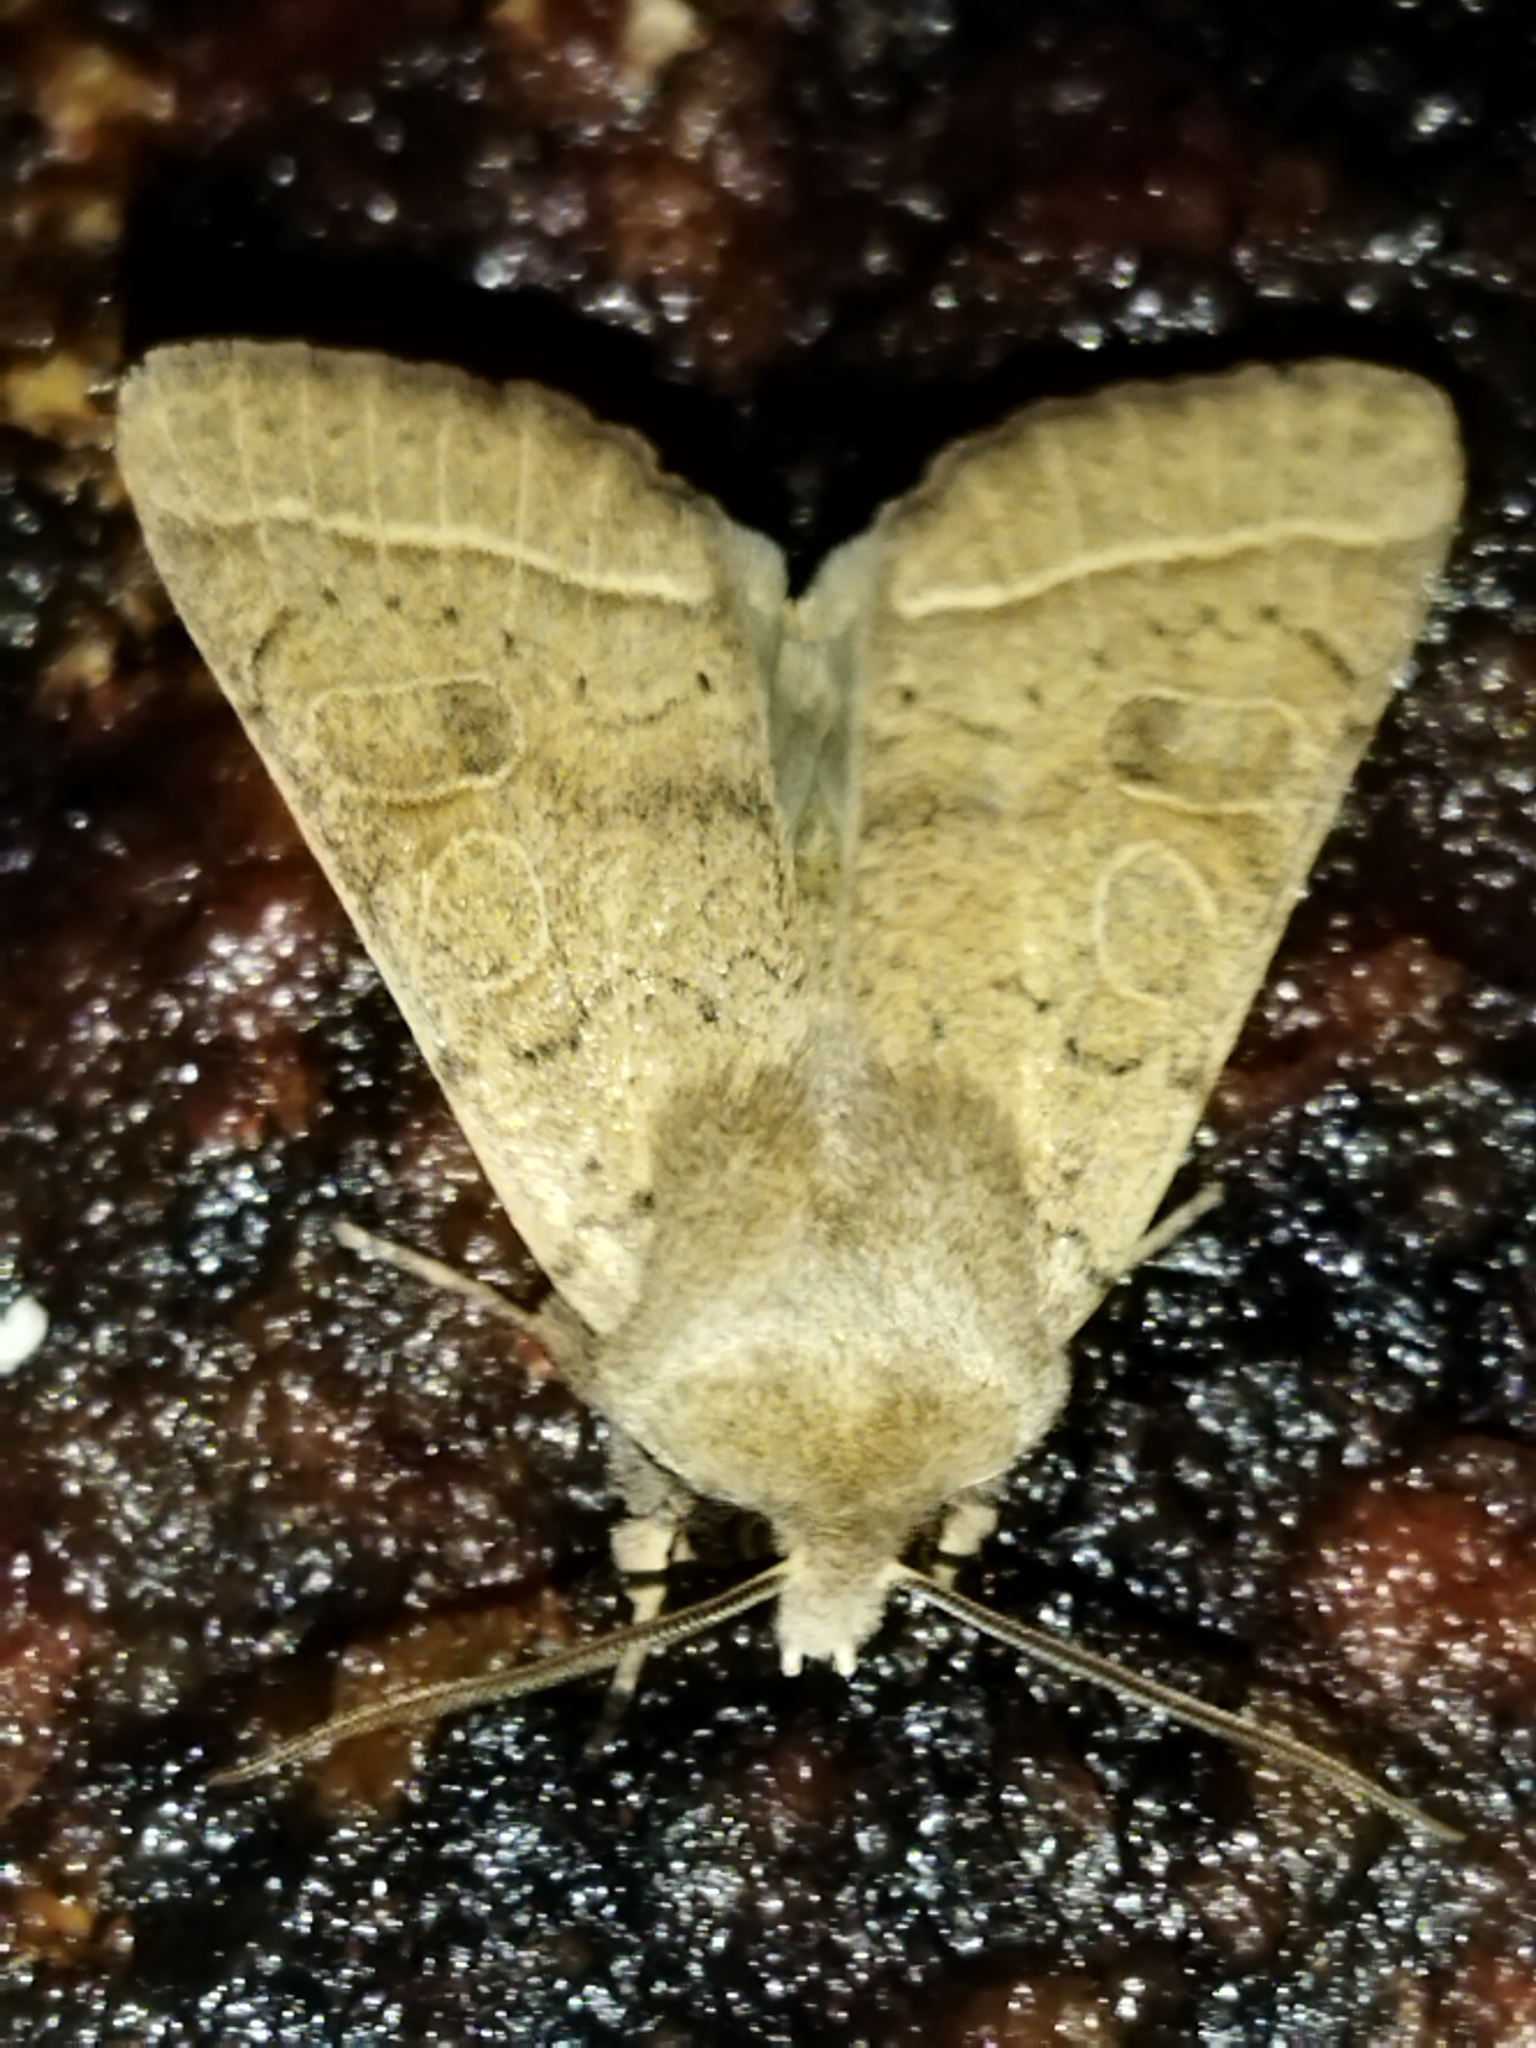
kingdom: Animalia
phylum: Arthropoda
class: Insecta
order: Lepidoptera
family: Noctuidae
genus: Orthosia
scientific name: Orthosia cerasi
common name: Common quaker
